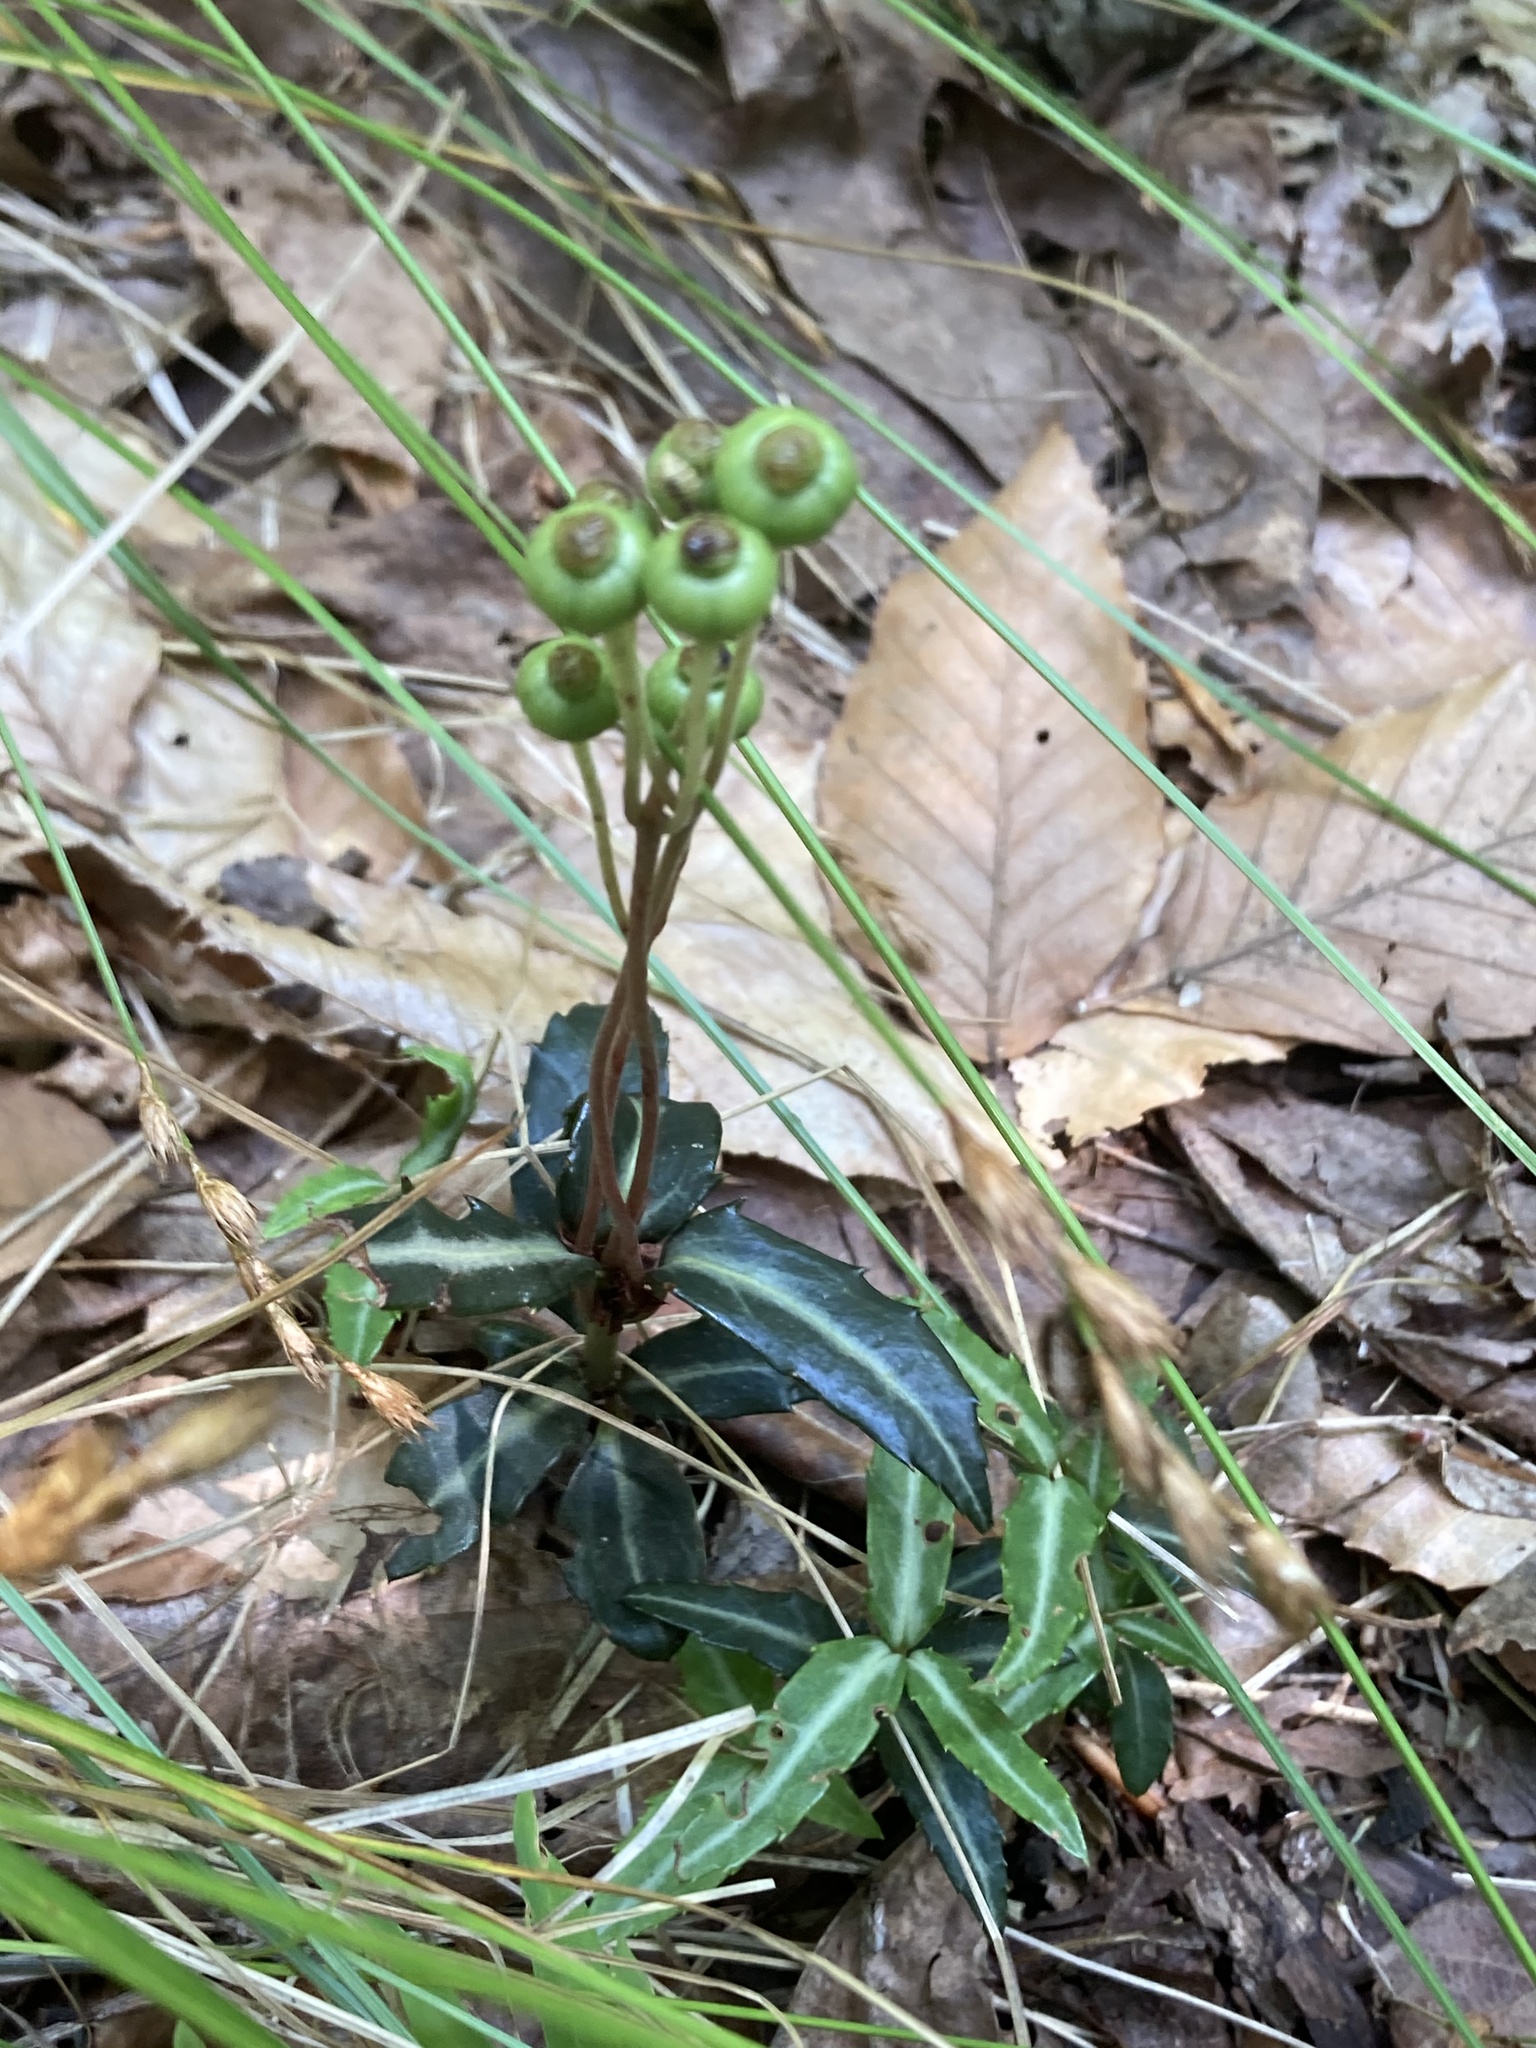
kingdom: Plantae
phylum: Tracheophyta
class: Magnoliopsida
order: Ericales
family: Ericaceae
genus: Chimaphila
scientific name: Chimaphila maculata
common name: Spotted pipsissewa
